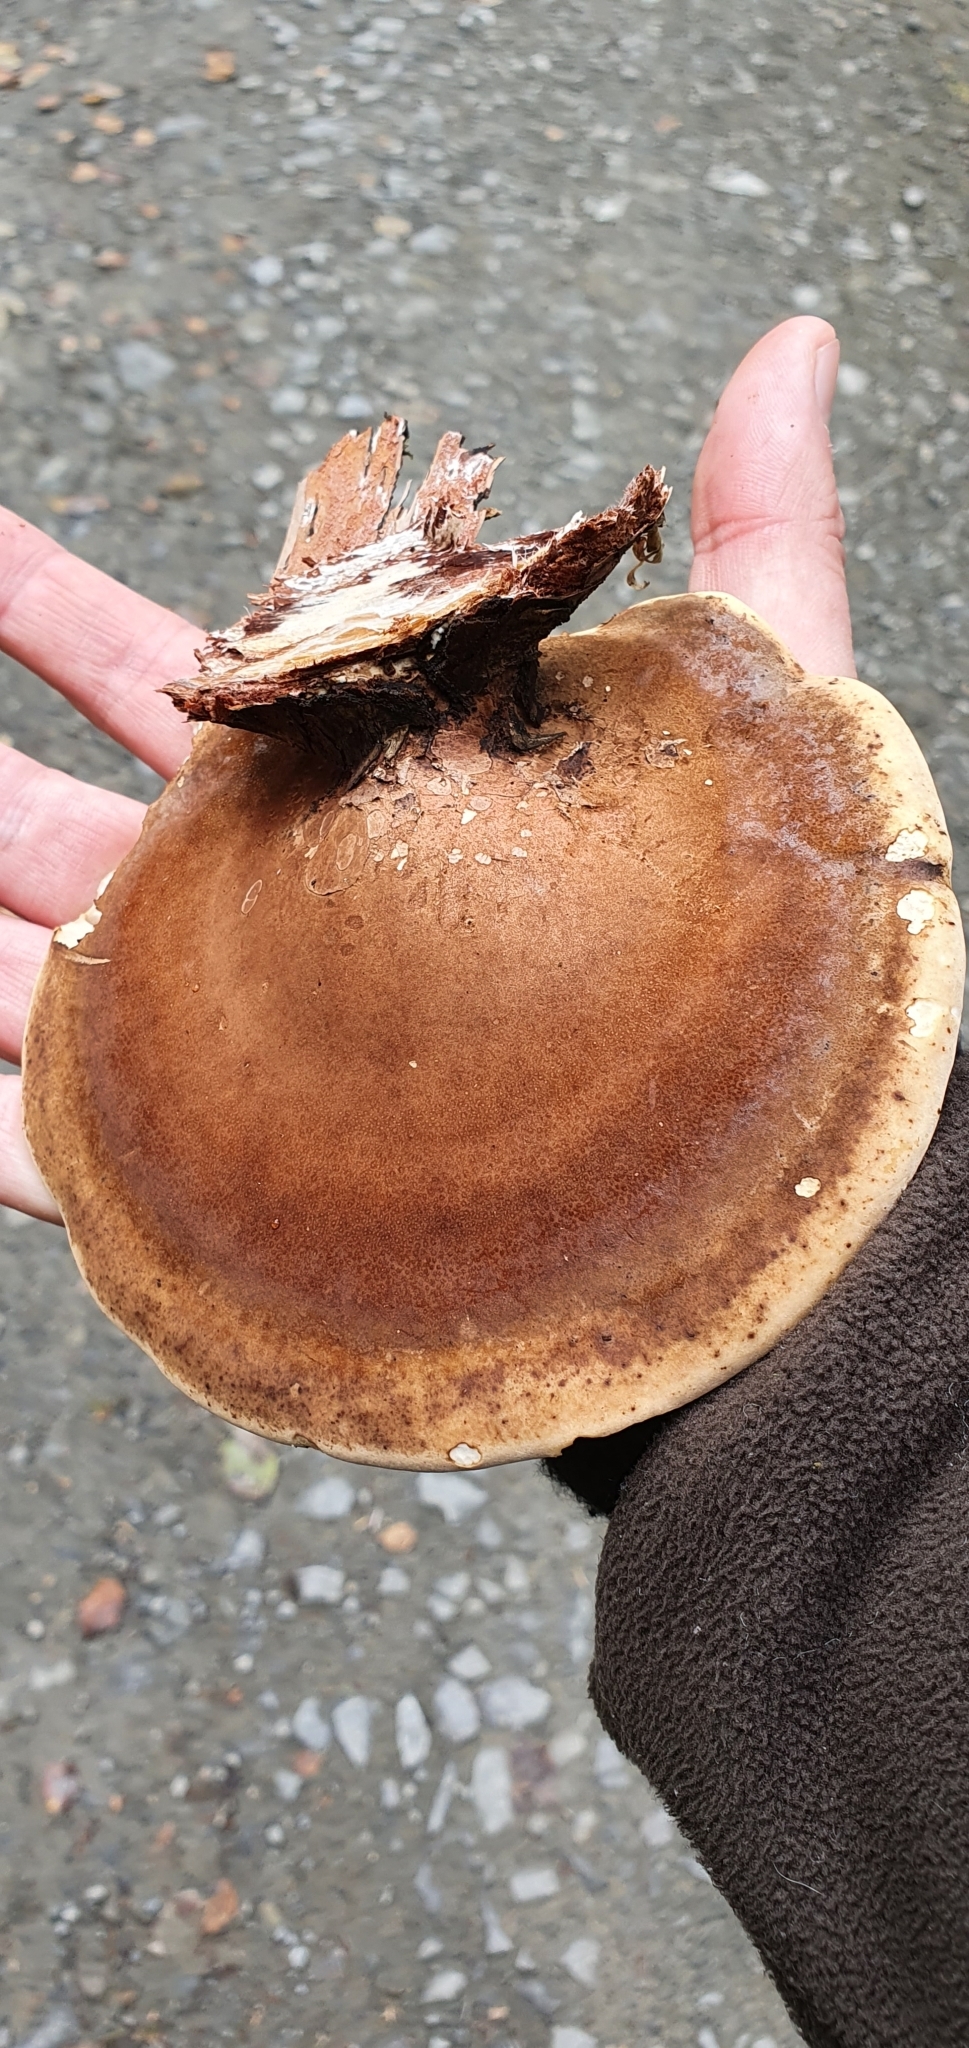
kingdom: Fungi
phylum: Basidiomycota
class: Agaricomycetes
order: Polyporales
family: Fomitopsidaceae
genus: Fomitopsis
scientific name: Fomitopsis betulina
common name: Birch polypore
